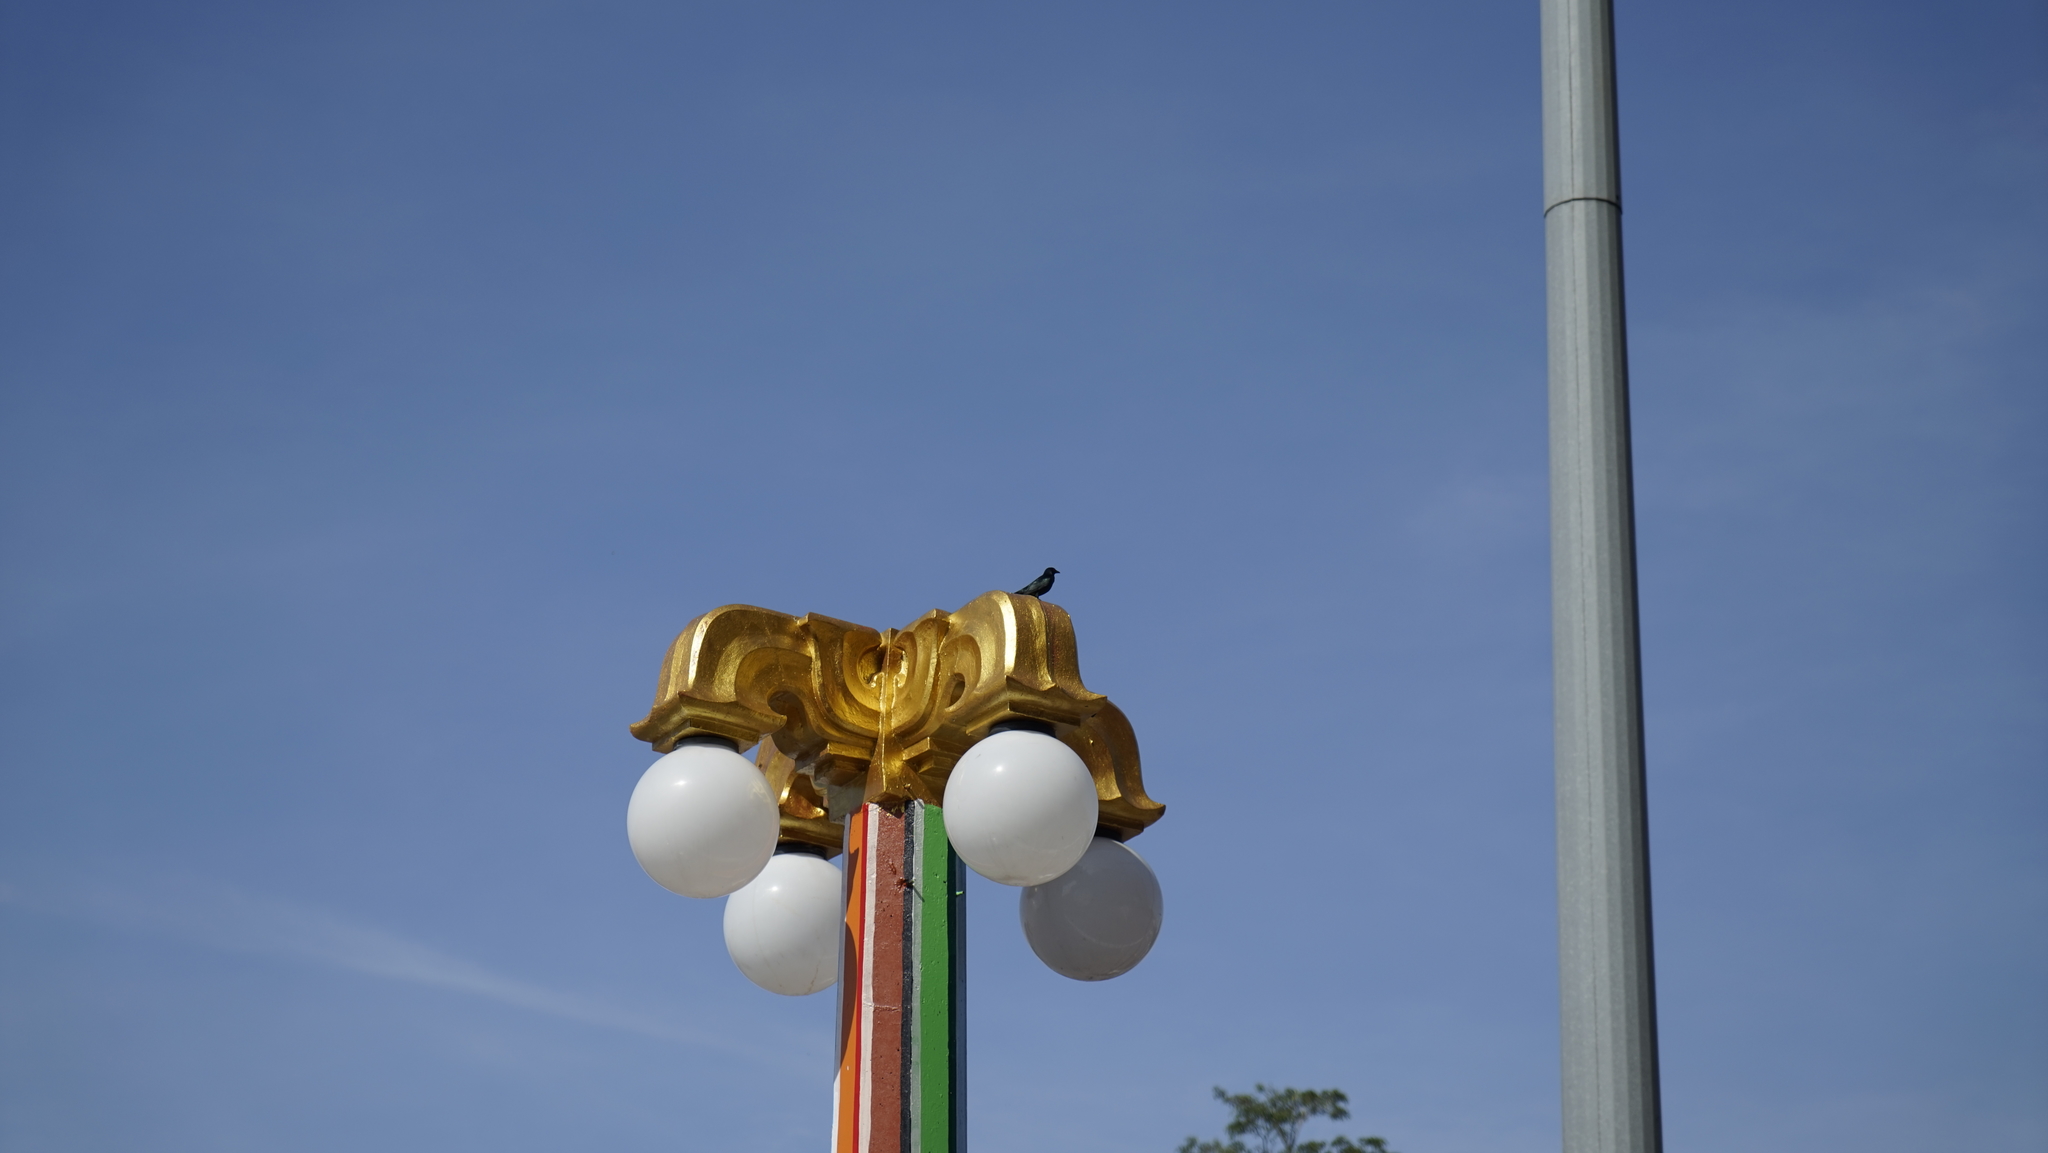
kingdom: Animalia
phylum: Chordata
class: Aves
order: Passeriformes
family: Sturnidae
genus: Aplonis
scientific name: Aplonis panayensis
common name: Asian glossy starling
